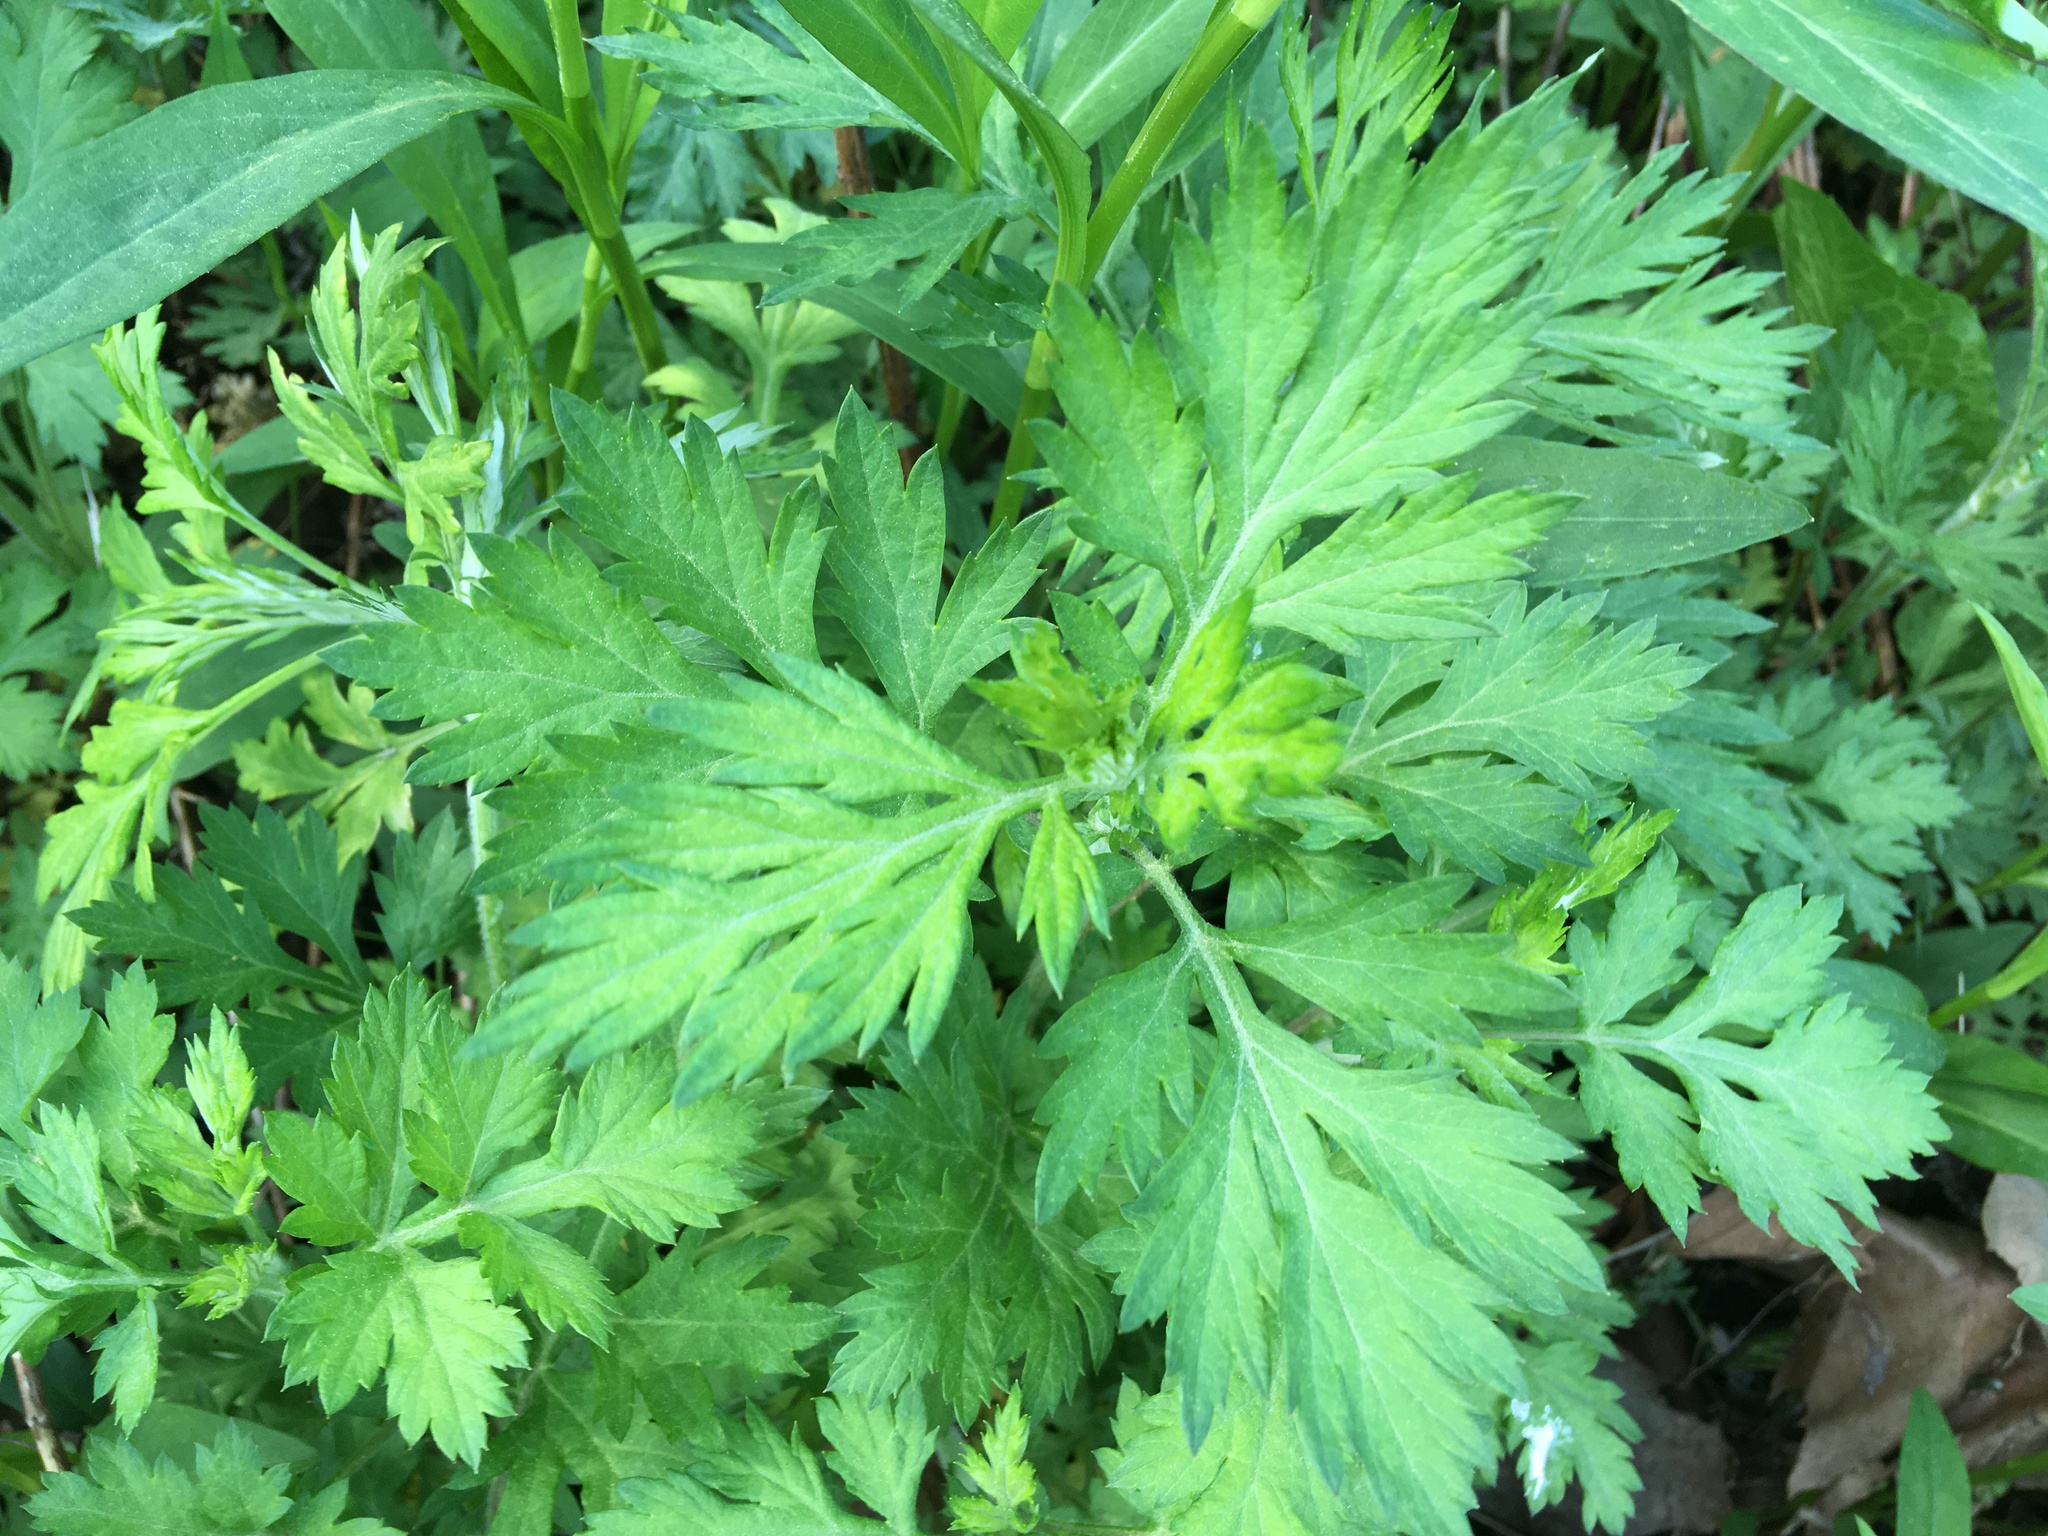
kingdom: Plantae
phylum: Tracheophyta
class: Magnoliopsida
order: Asterales
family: Asteraceae
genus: Artemisia
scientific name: Artemisia vulgaris
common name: Mugwort
